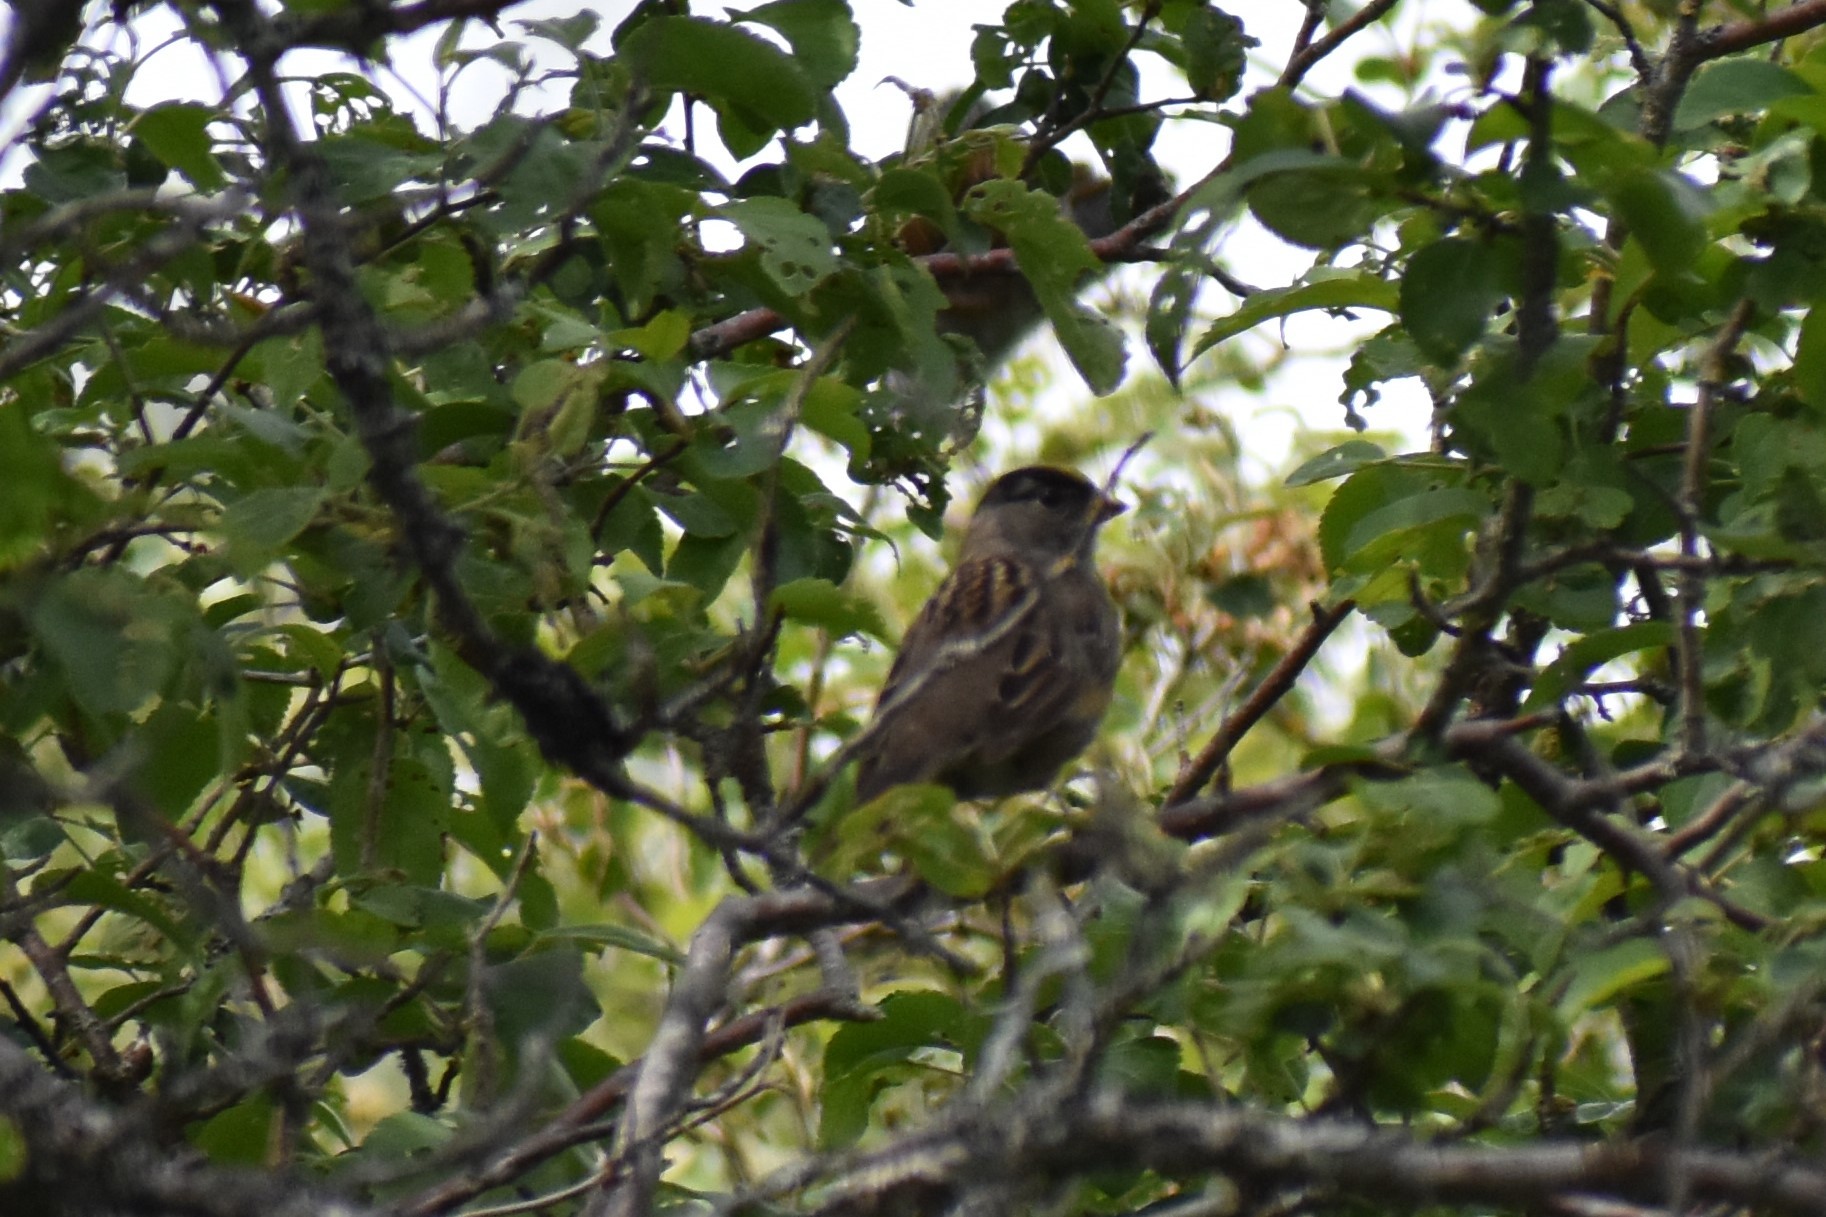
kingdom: Animalia
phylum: Chordata
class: Aves
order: Passeriformes
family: Passerellidae
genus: Zonotrichia
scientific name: Zonotrichia atricapilla
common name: Golden-crowned sparrow
